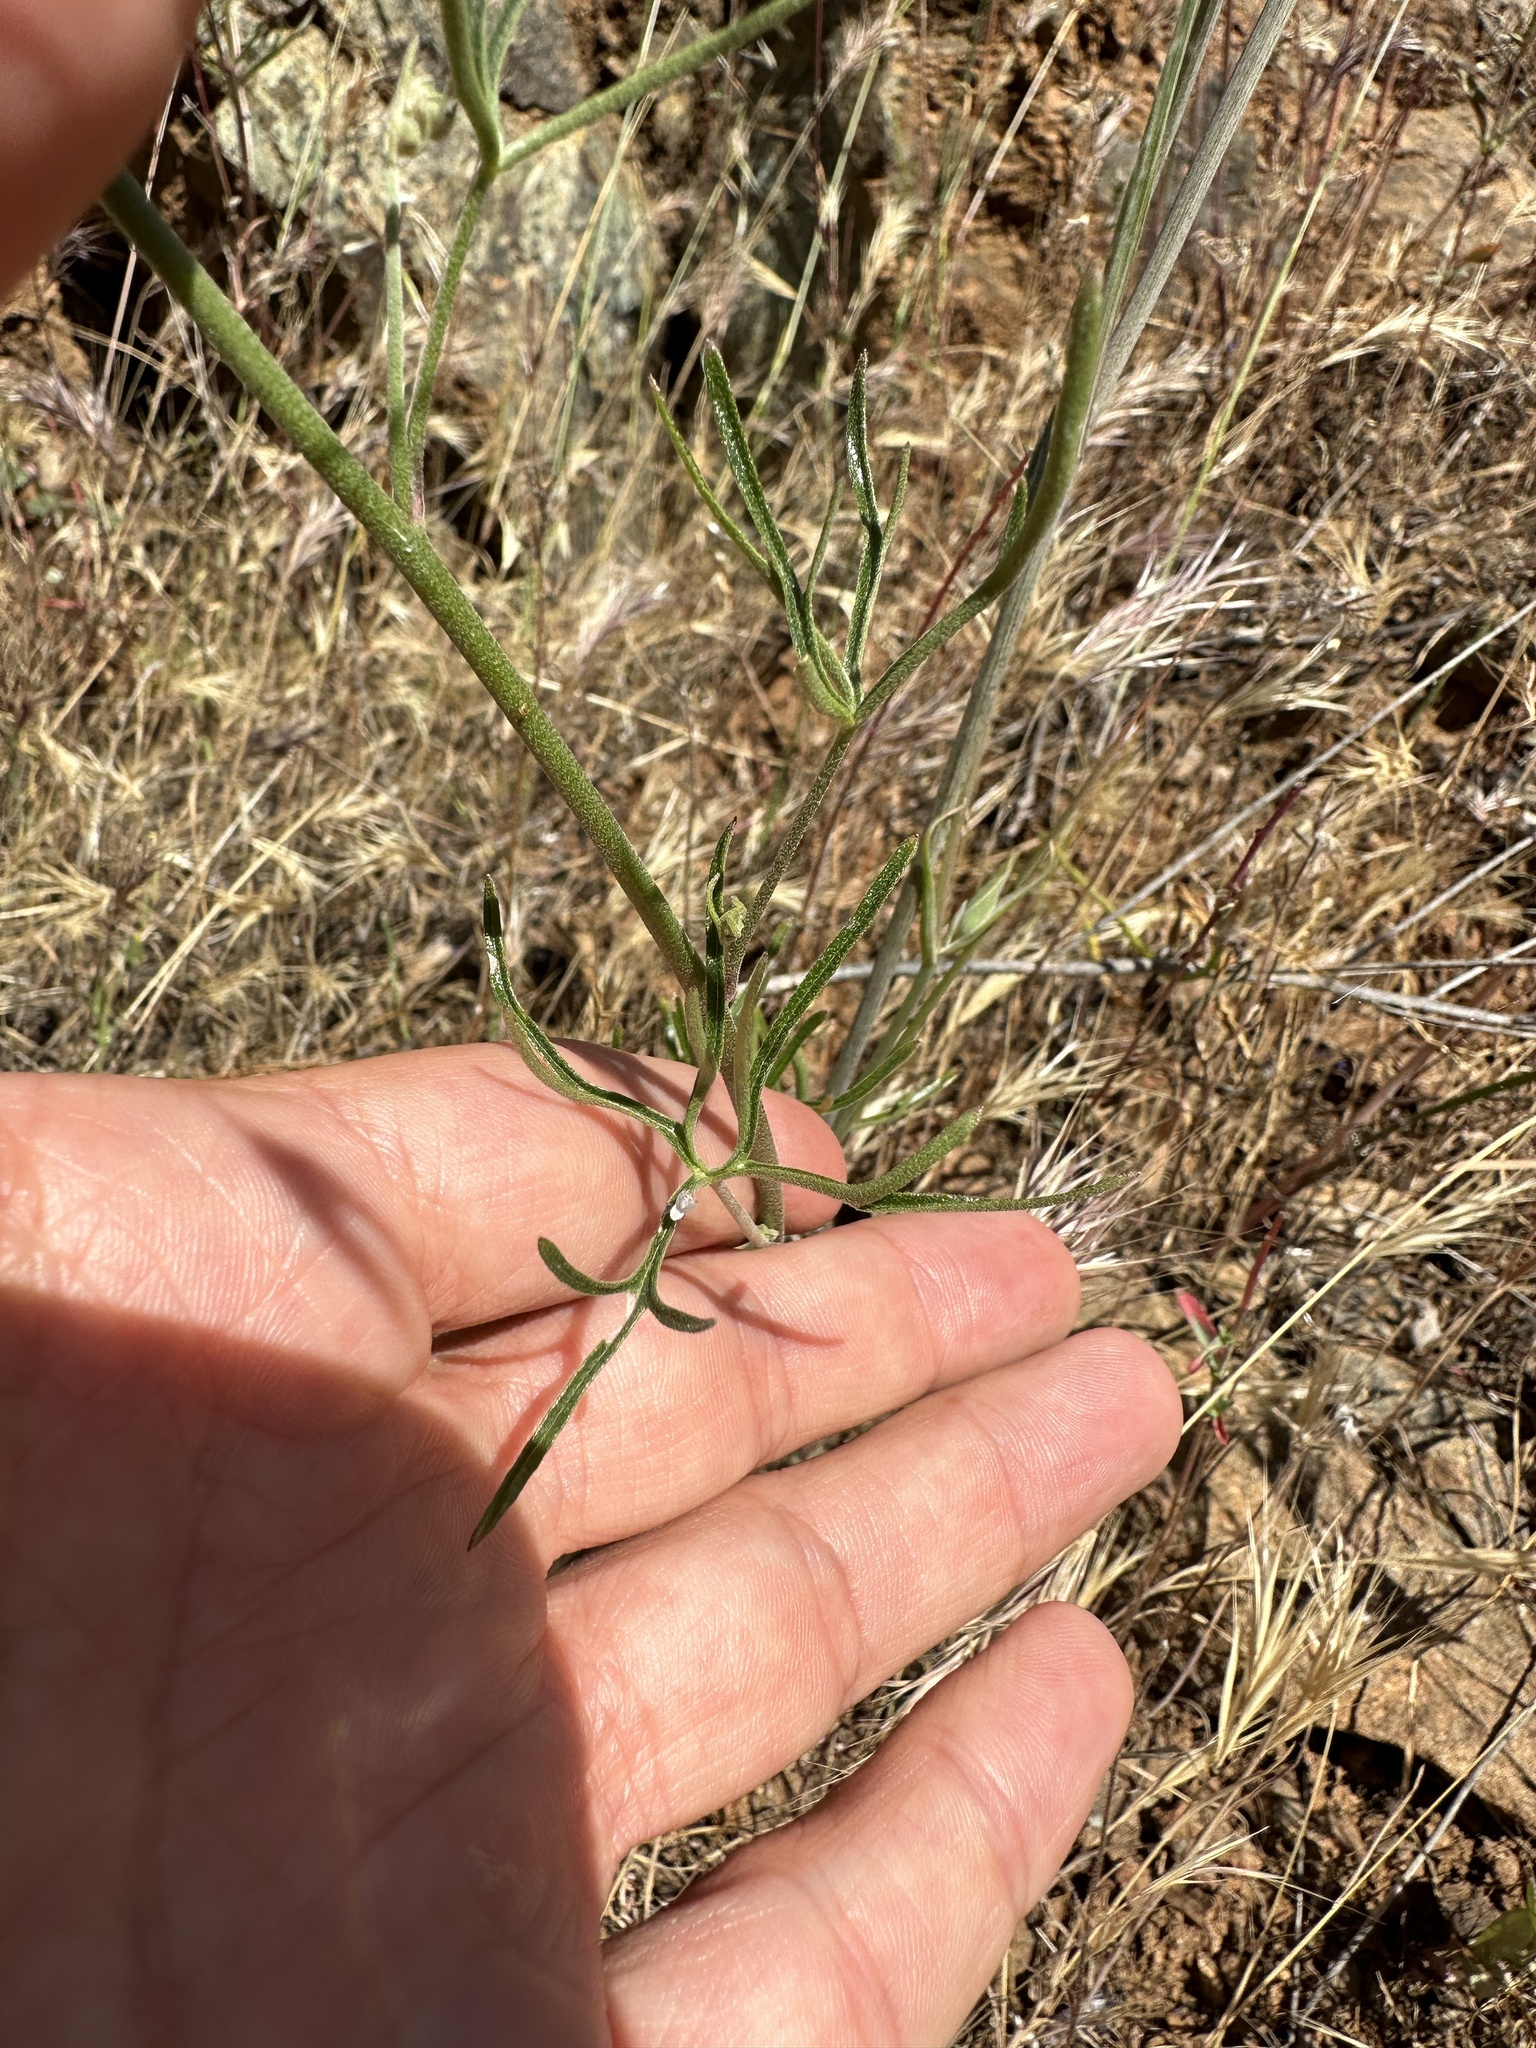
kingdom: Plantae
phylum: Tracheophyta
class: Magnoliopsida
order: Ranunculales
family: Ranunculaceae
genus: Delphinium
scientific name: Delphinium parryi
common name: Parry's larkspur
